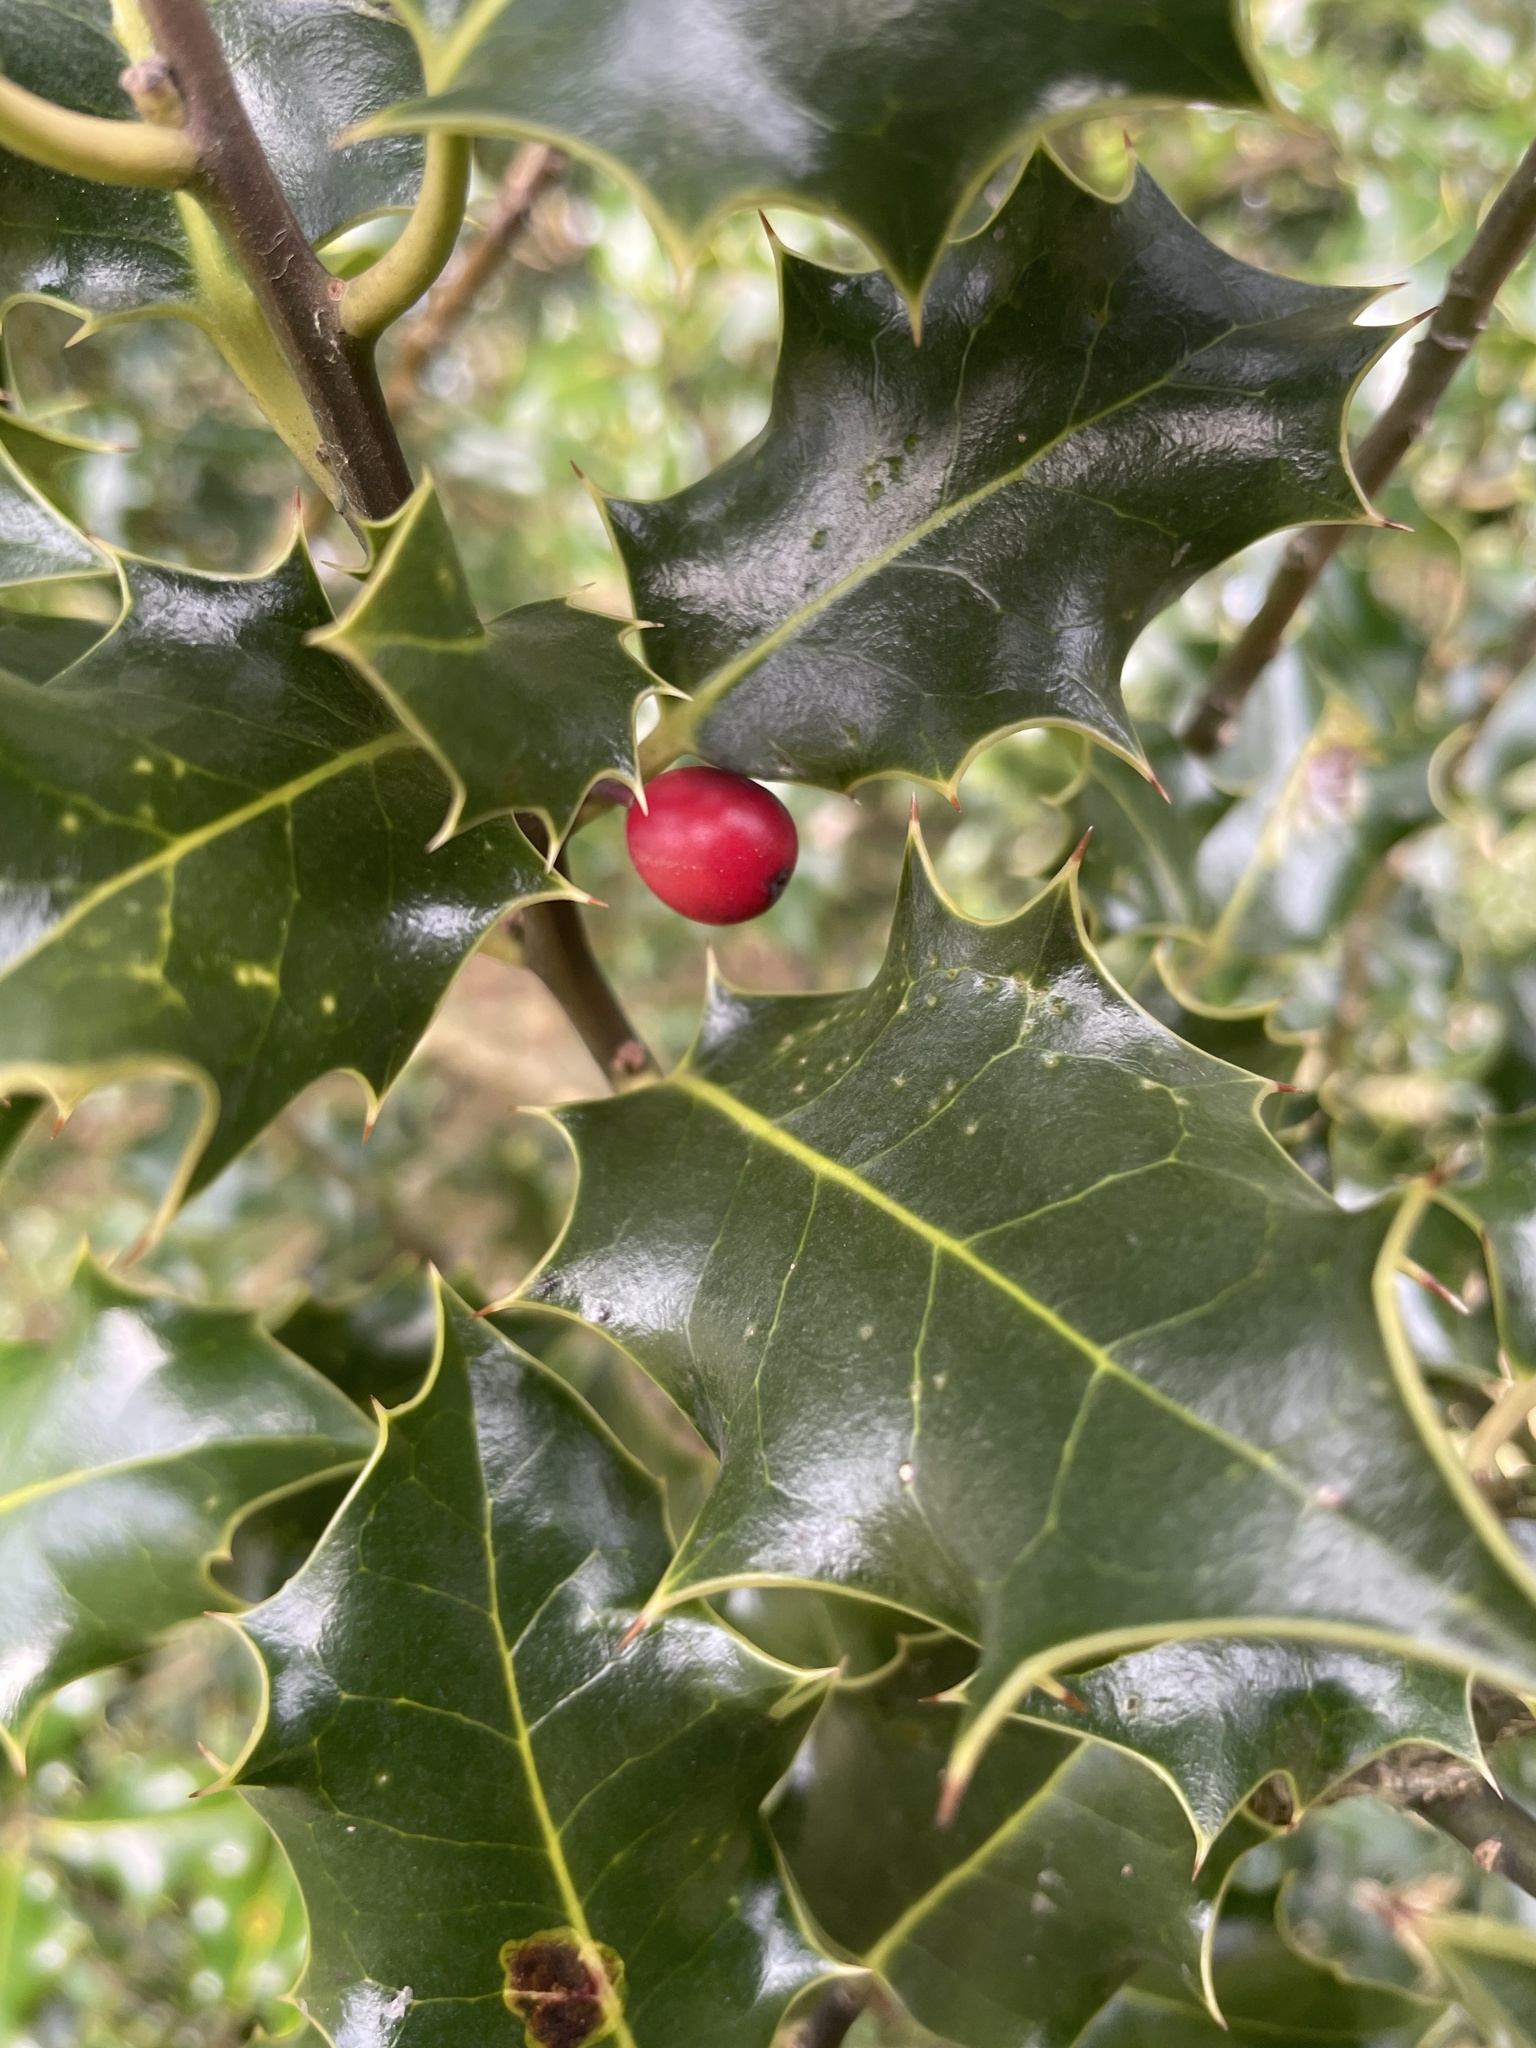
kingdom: Plantae
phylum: Tracheophyta
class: Magnoliopsida
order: Aquifoliales
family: Aquifoliaceae
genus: Ilex
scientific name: Ilex aquifolium
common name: English holly
